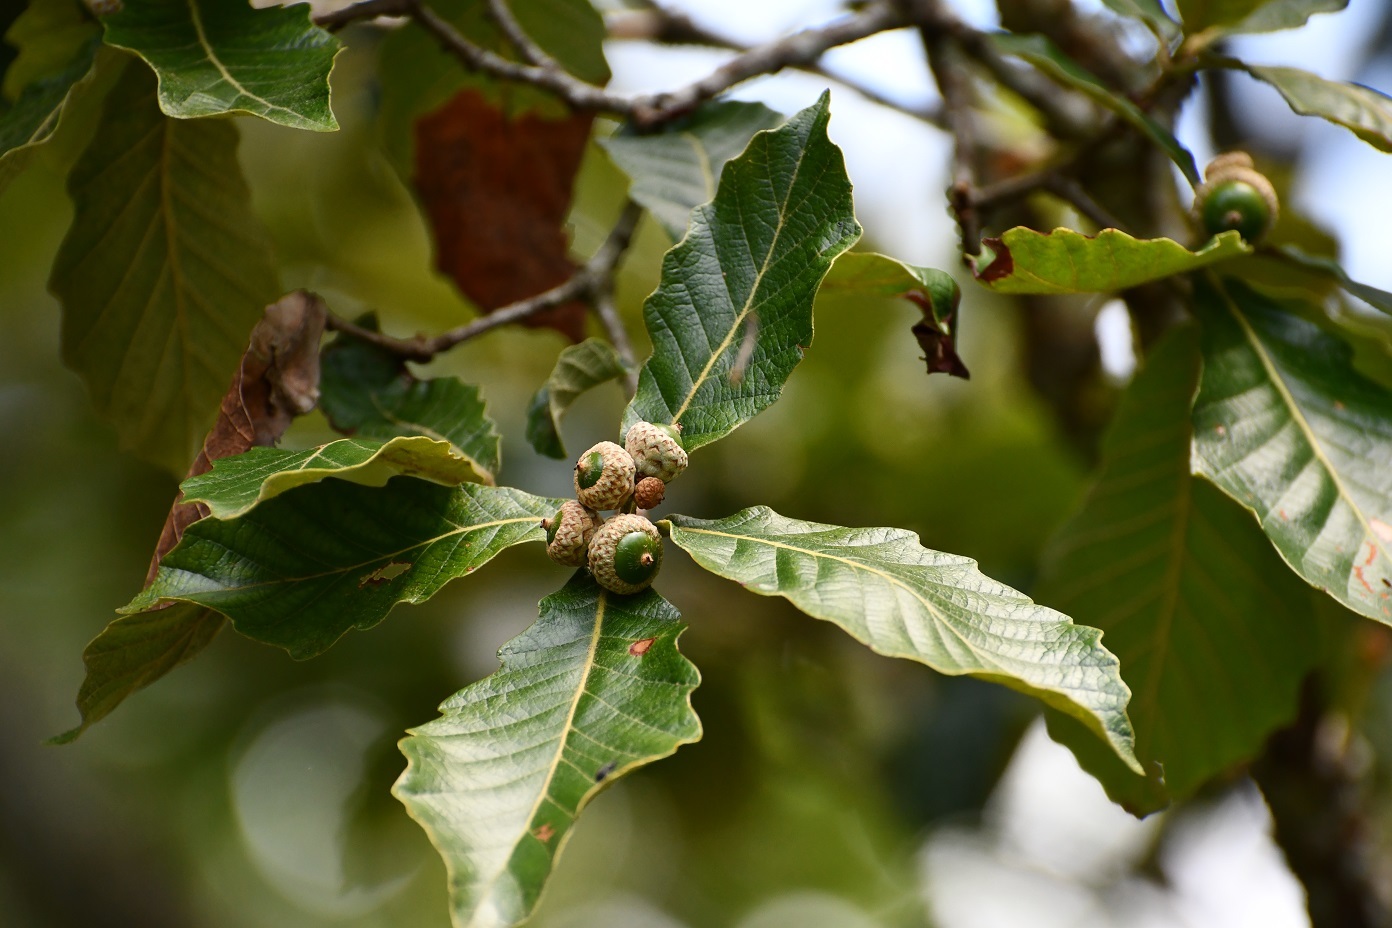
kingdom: Plantae
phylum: Tracheophyta
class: Magnoliopsida
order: Fagales
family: Fagaceae
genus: Quercus
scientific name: Quercus purulhana
